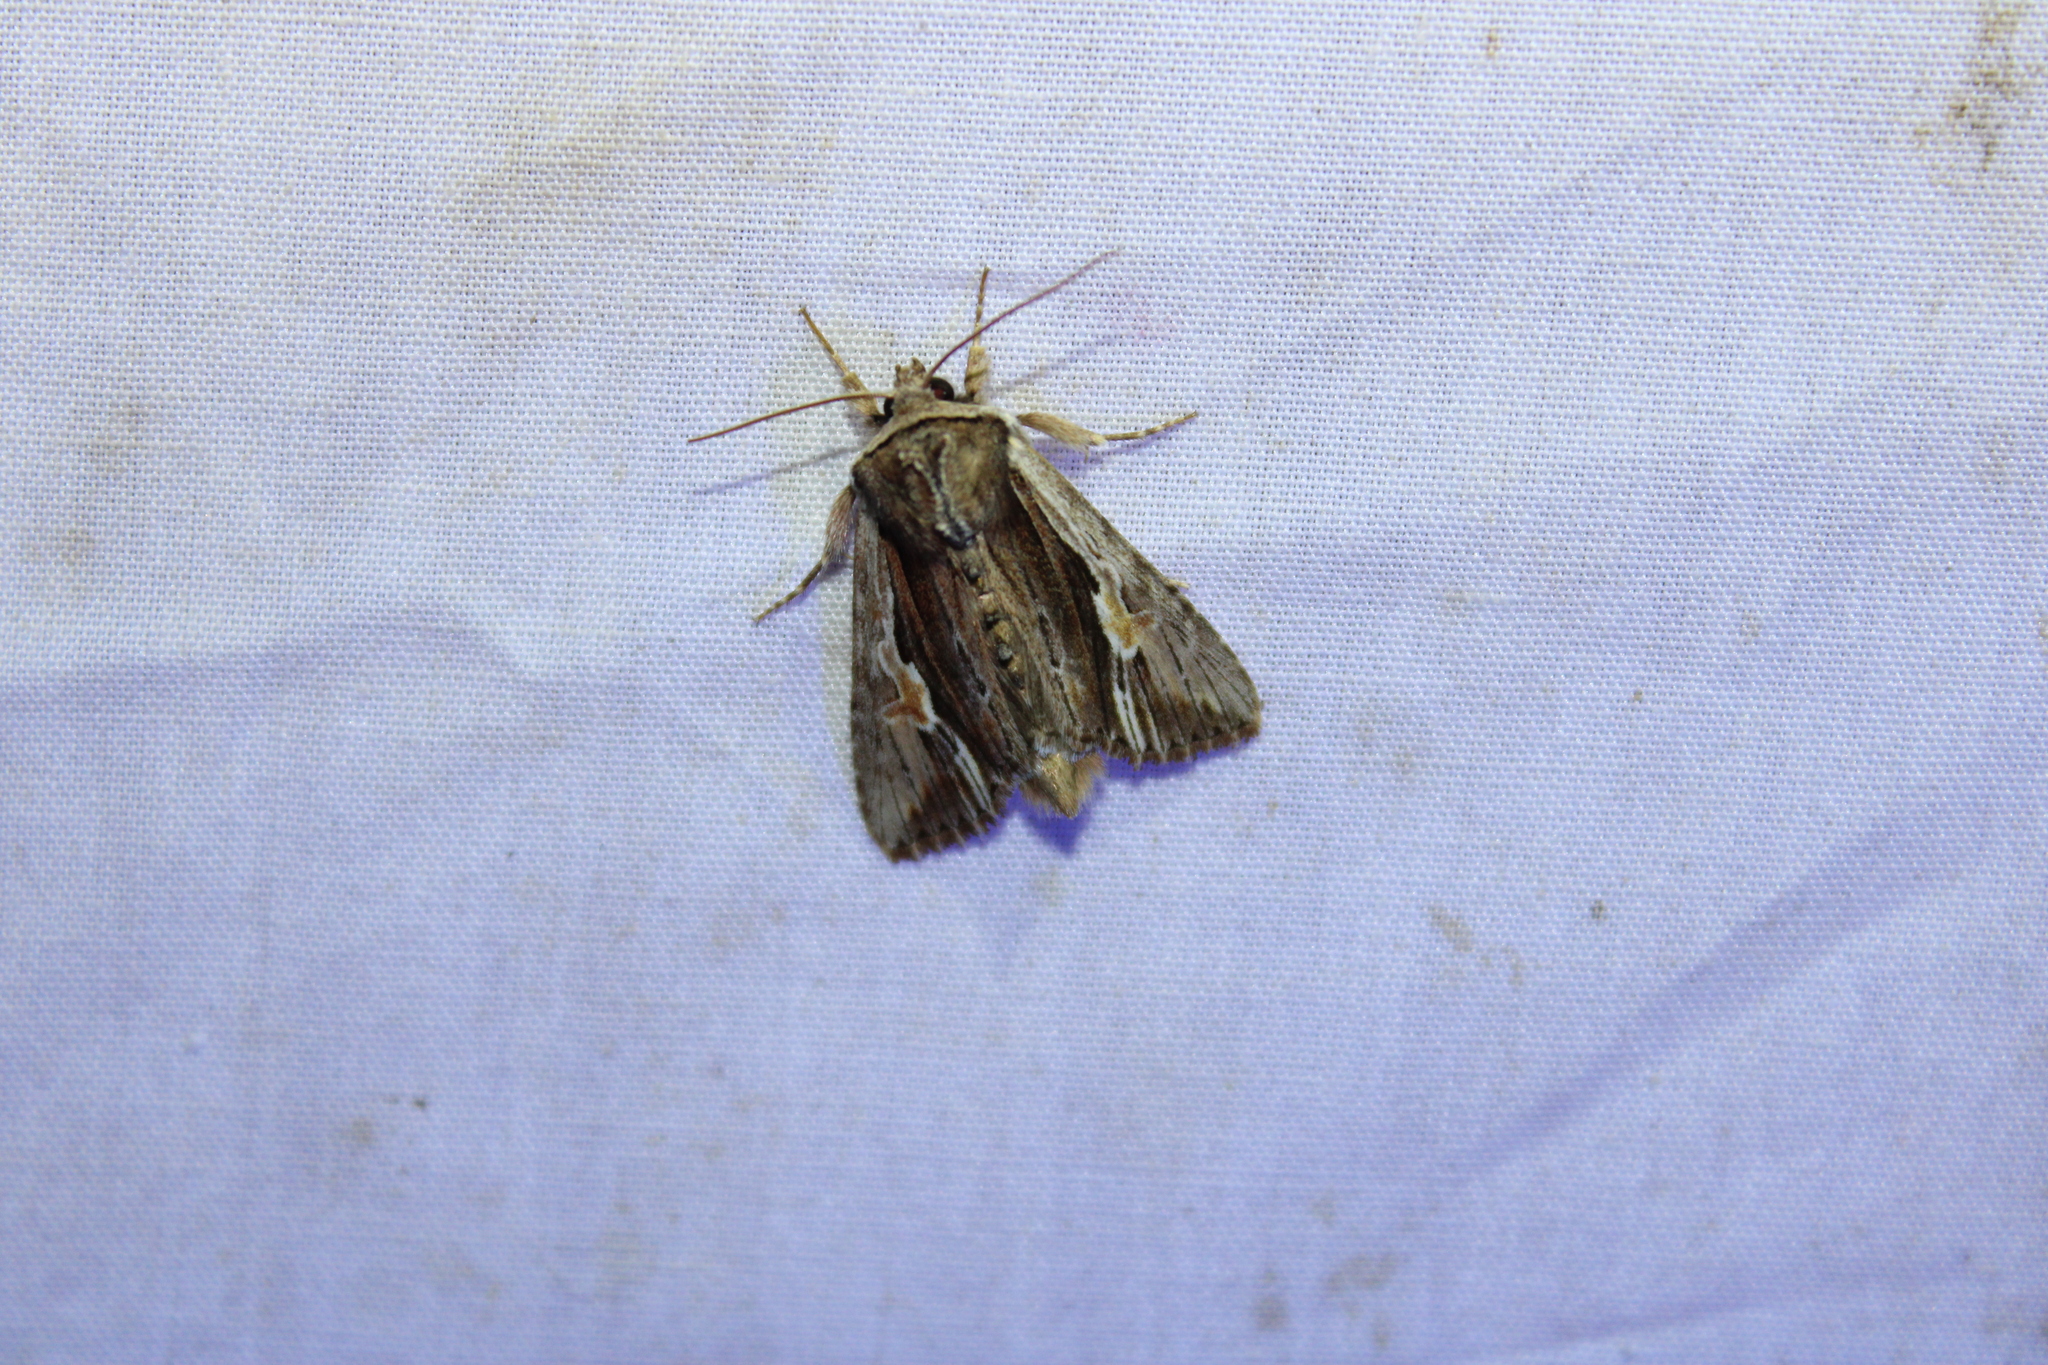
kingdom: Animalia
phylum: Arthropoda
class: Insecta
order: Lepidoptera
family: Noctuidae
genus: Achatia
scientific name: Achatia evicta
